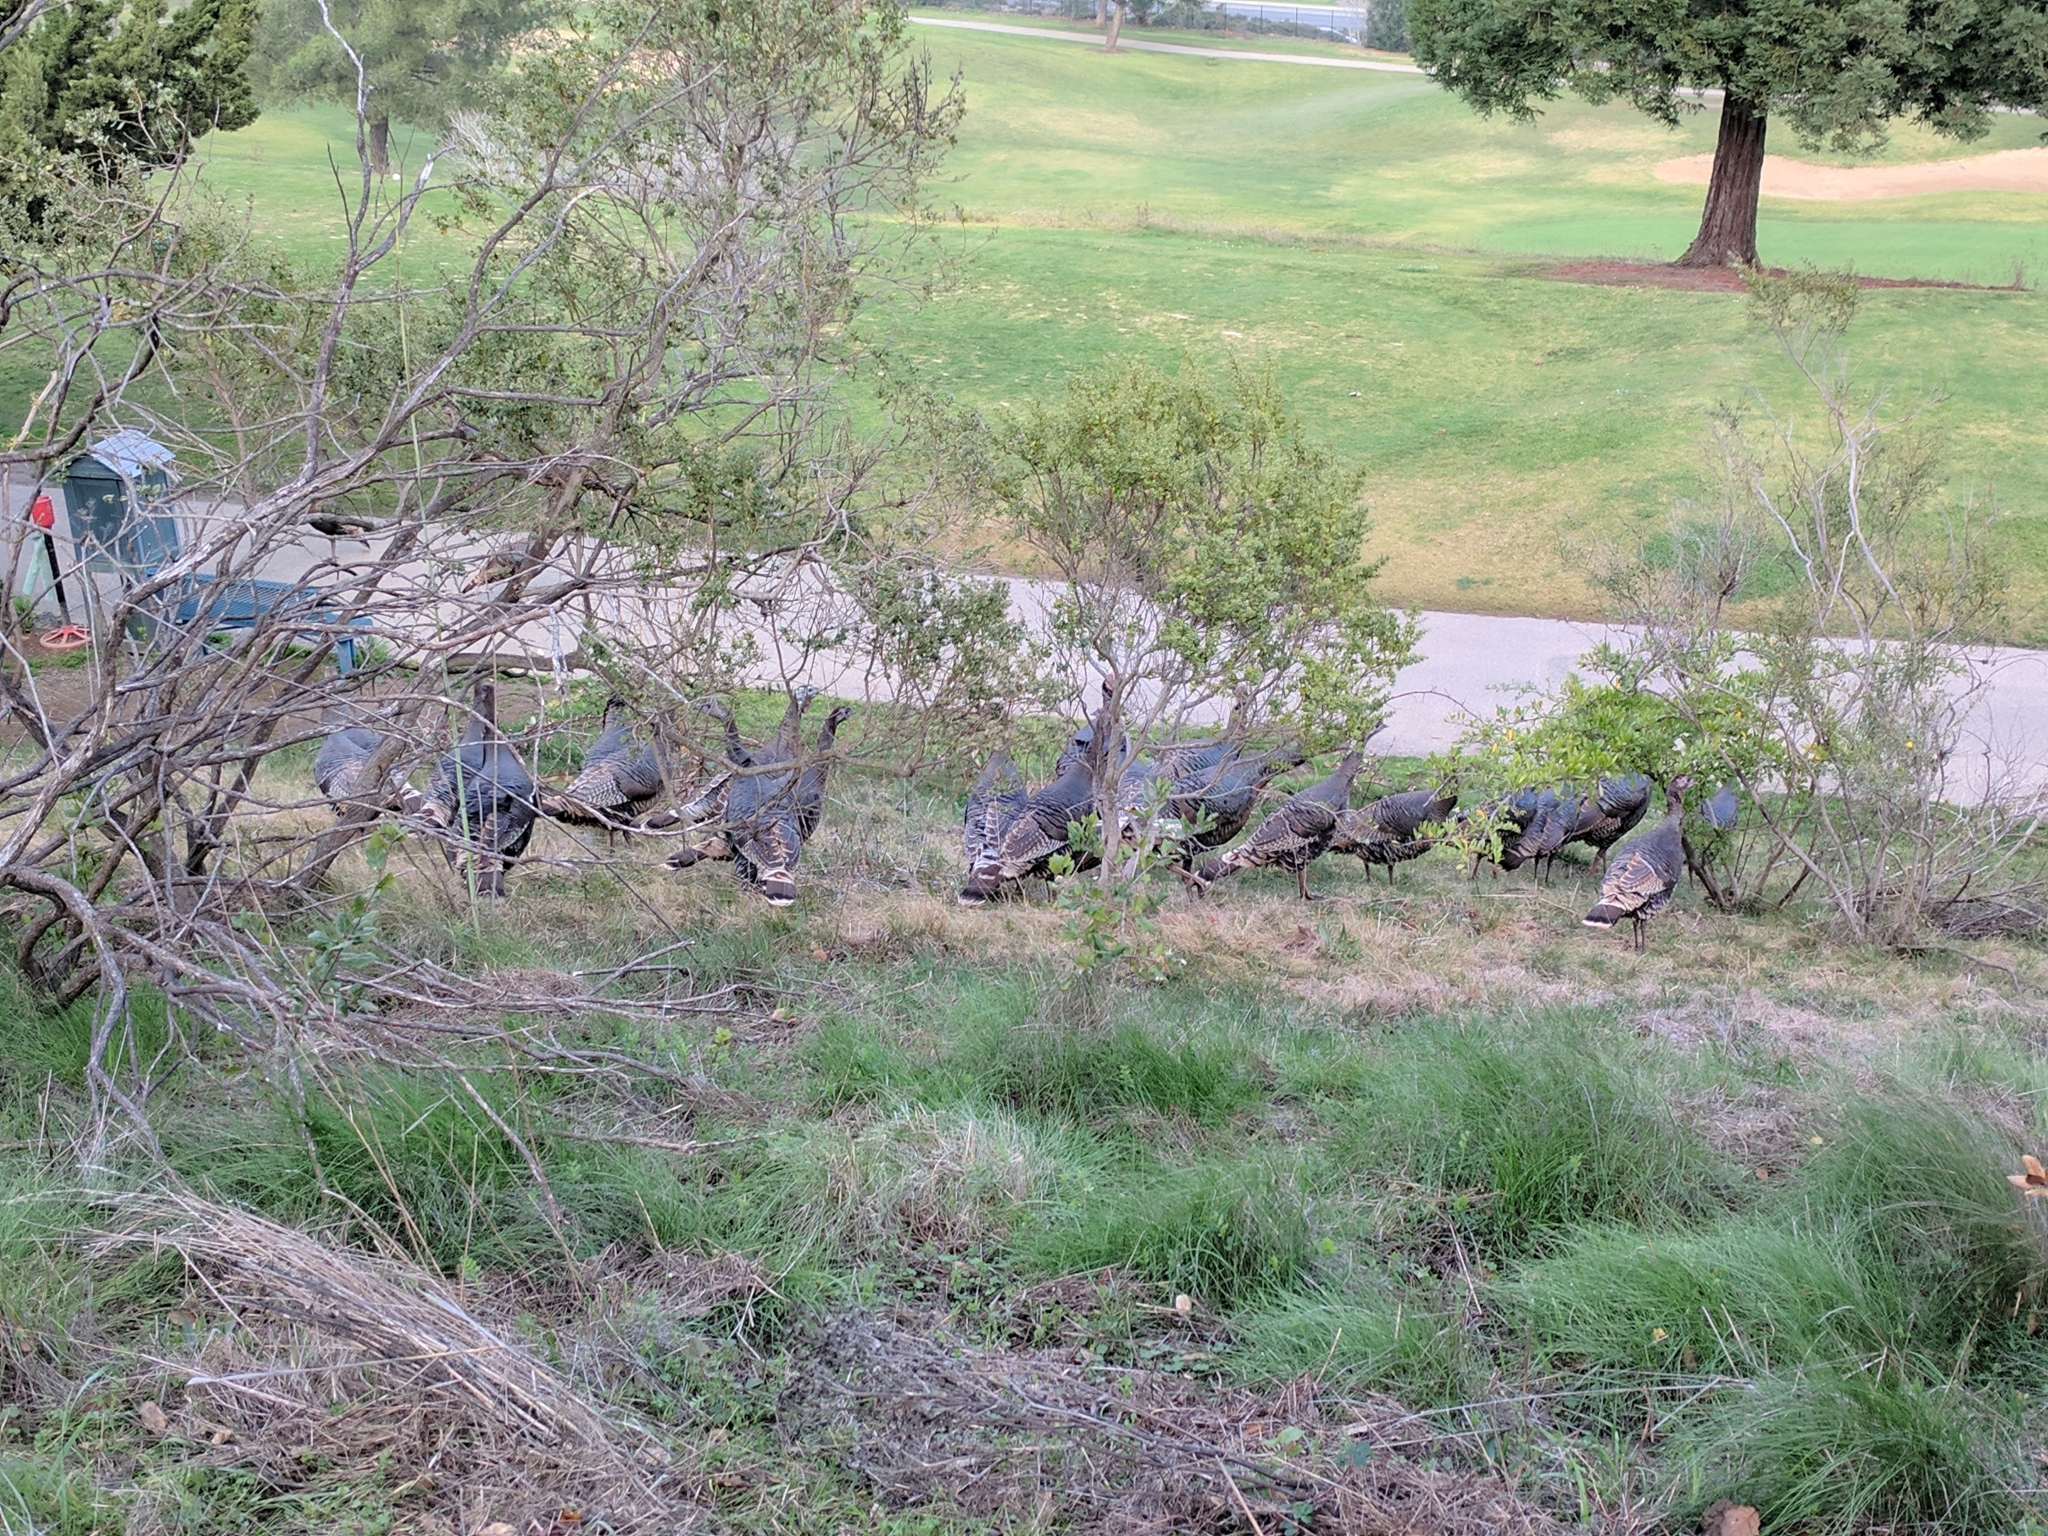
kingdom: Animalia
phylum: Chordata
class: Aves
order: Galliformes
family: Phasianidae
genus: Meleagris
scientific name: Meleagris gallopavo
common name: Wild turkey
